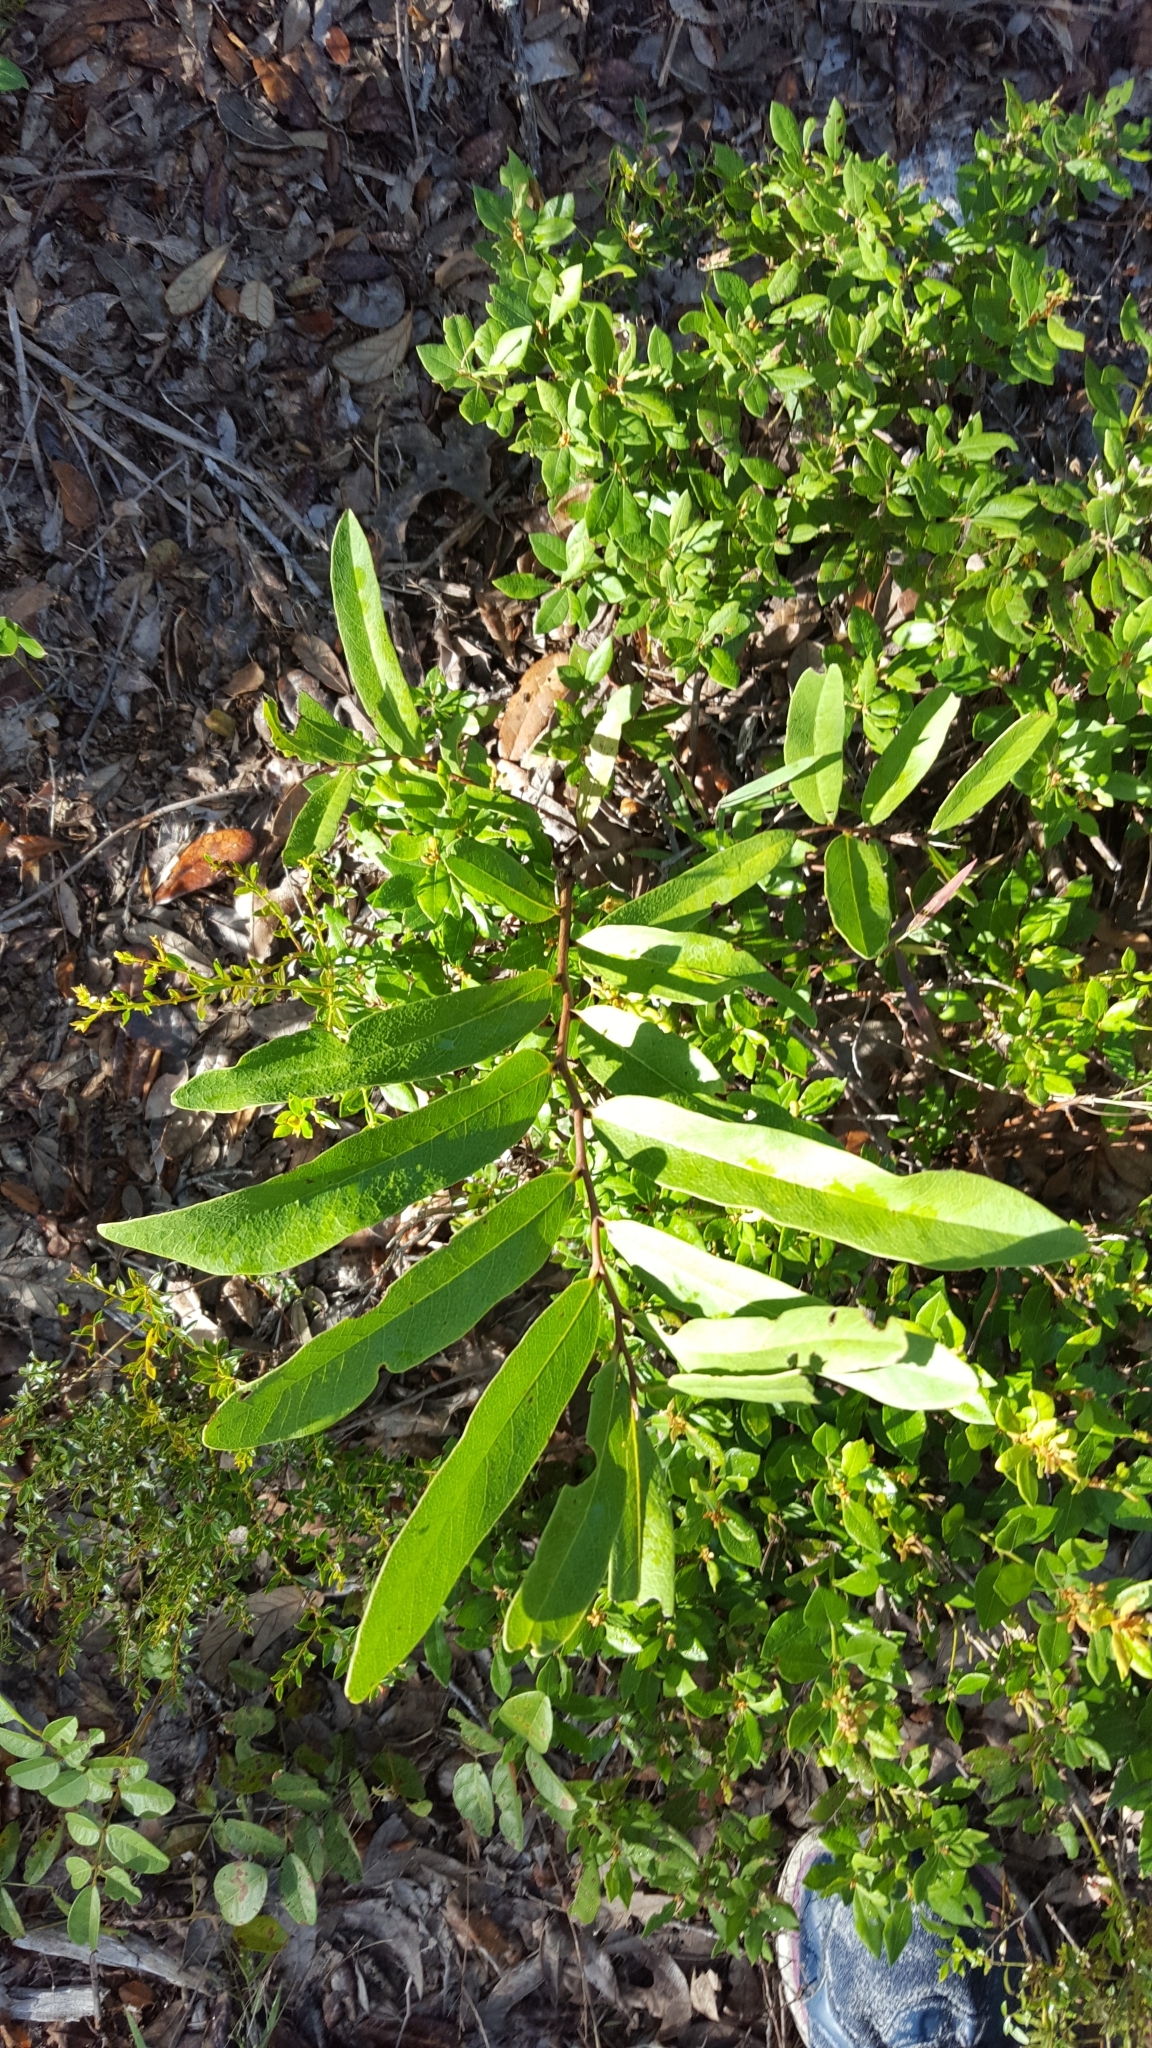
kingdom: Plantae
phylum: Tracheophyta
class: Magnoliopsida
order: Magnoliales
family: Annonaceae
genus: Asimina
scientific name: Asimina pygmaea
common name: Dwarf pawpaw
